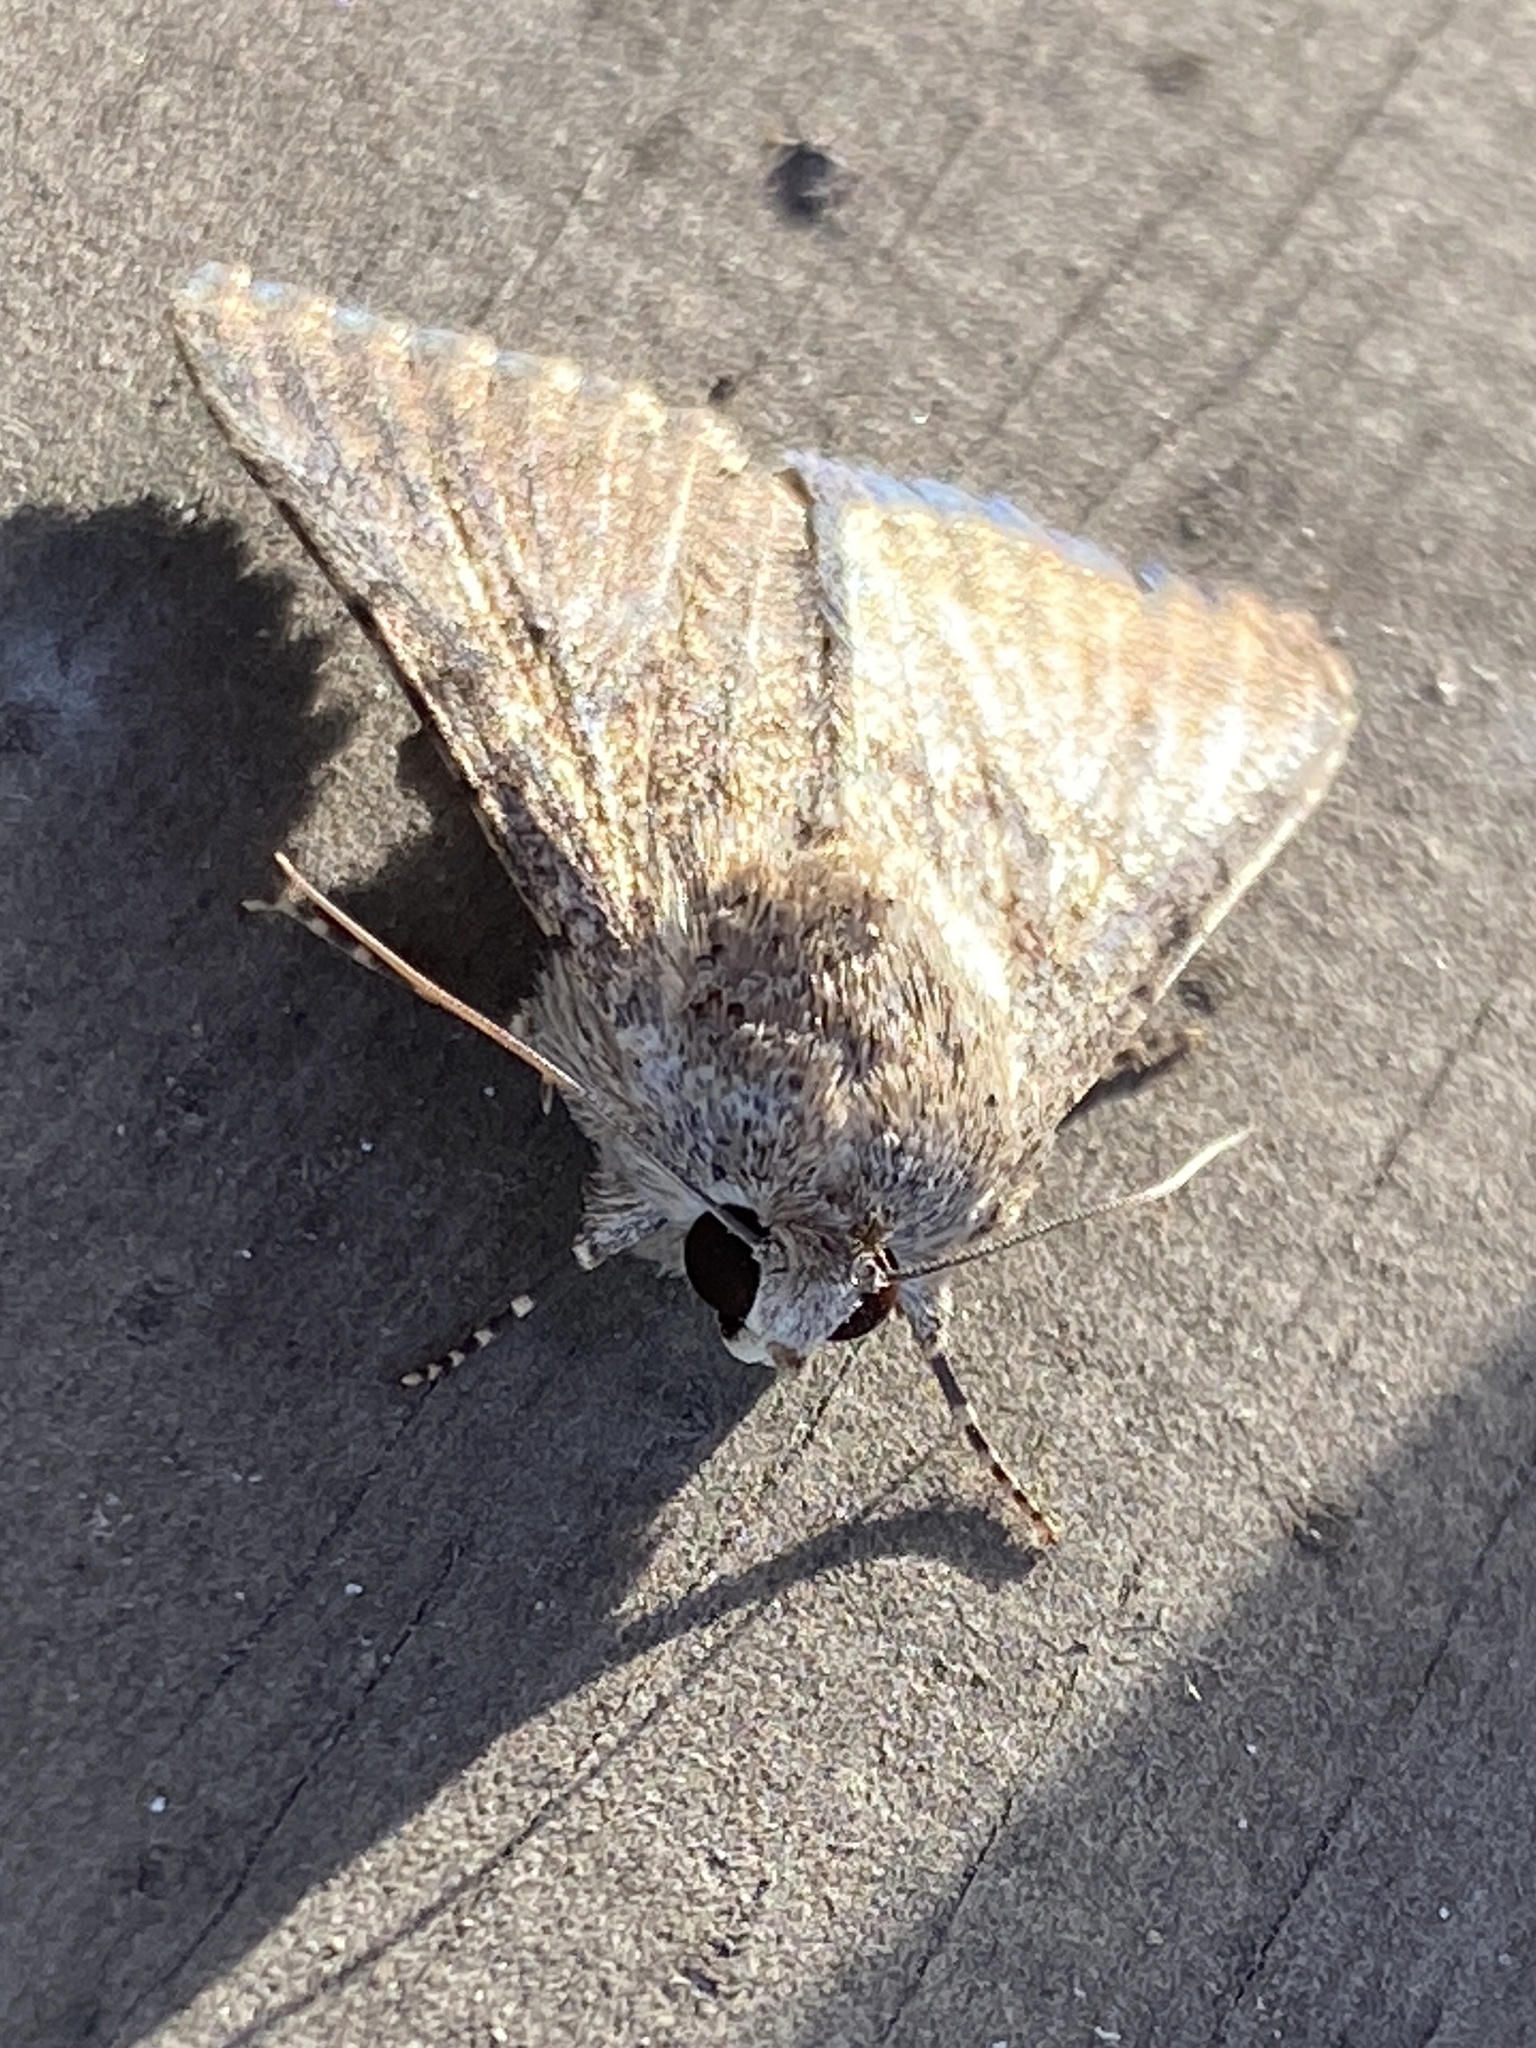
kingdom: Animalia
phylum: Arthropoda
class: Insecta
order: Lepidoptera
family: Erebidae
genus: Pandesma
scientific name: Pandesma robusta
